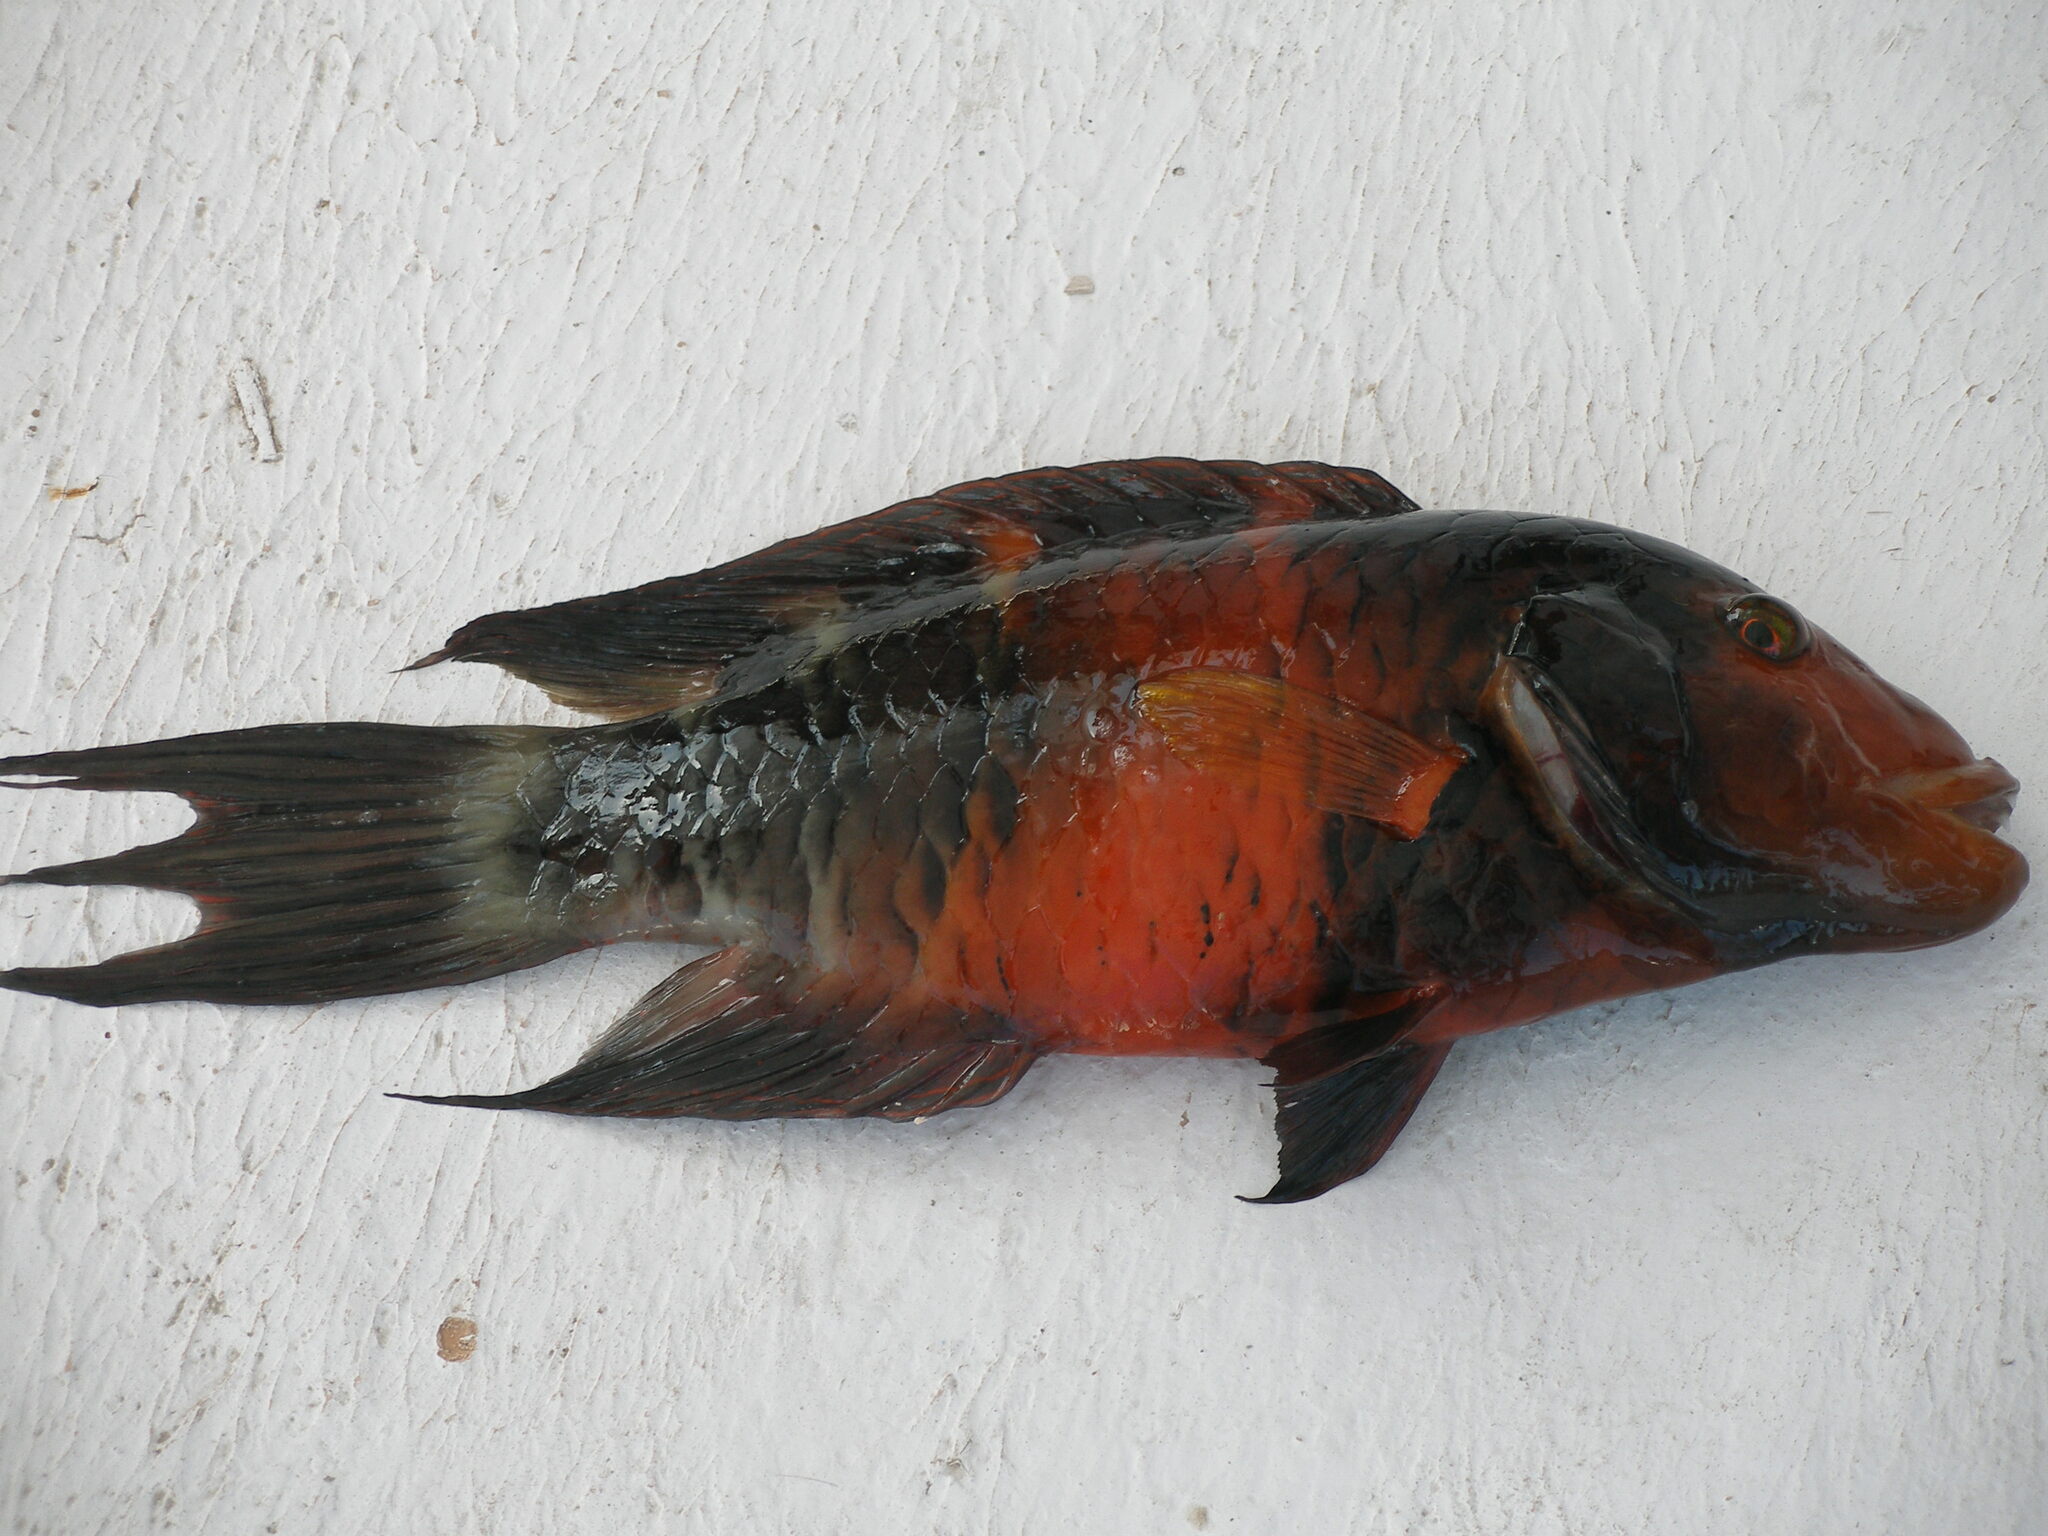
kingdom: Animalia
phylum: Chordata
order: Perciformes
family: Labridae
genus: Cheilinus
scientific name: Cheilinus fasciatus
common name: Red-breasted wrasse
